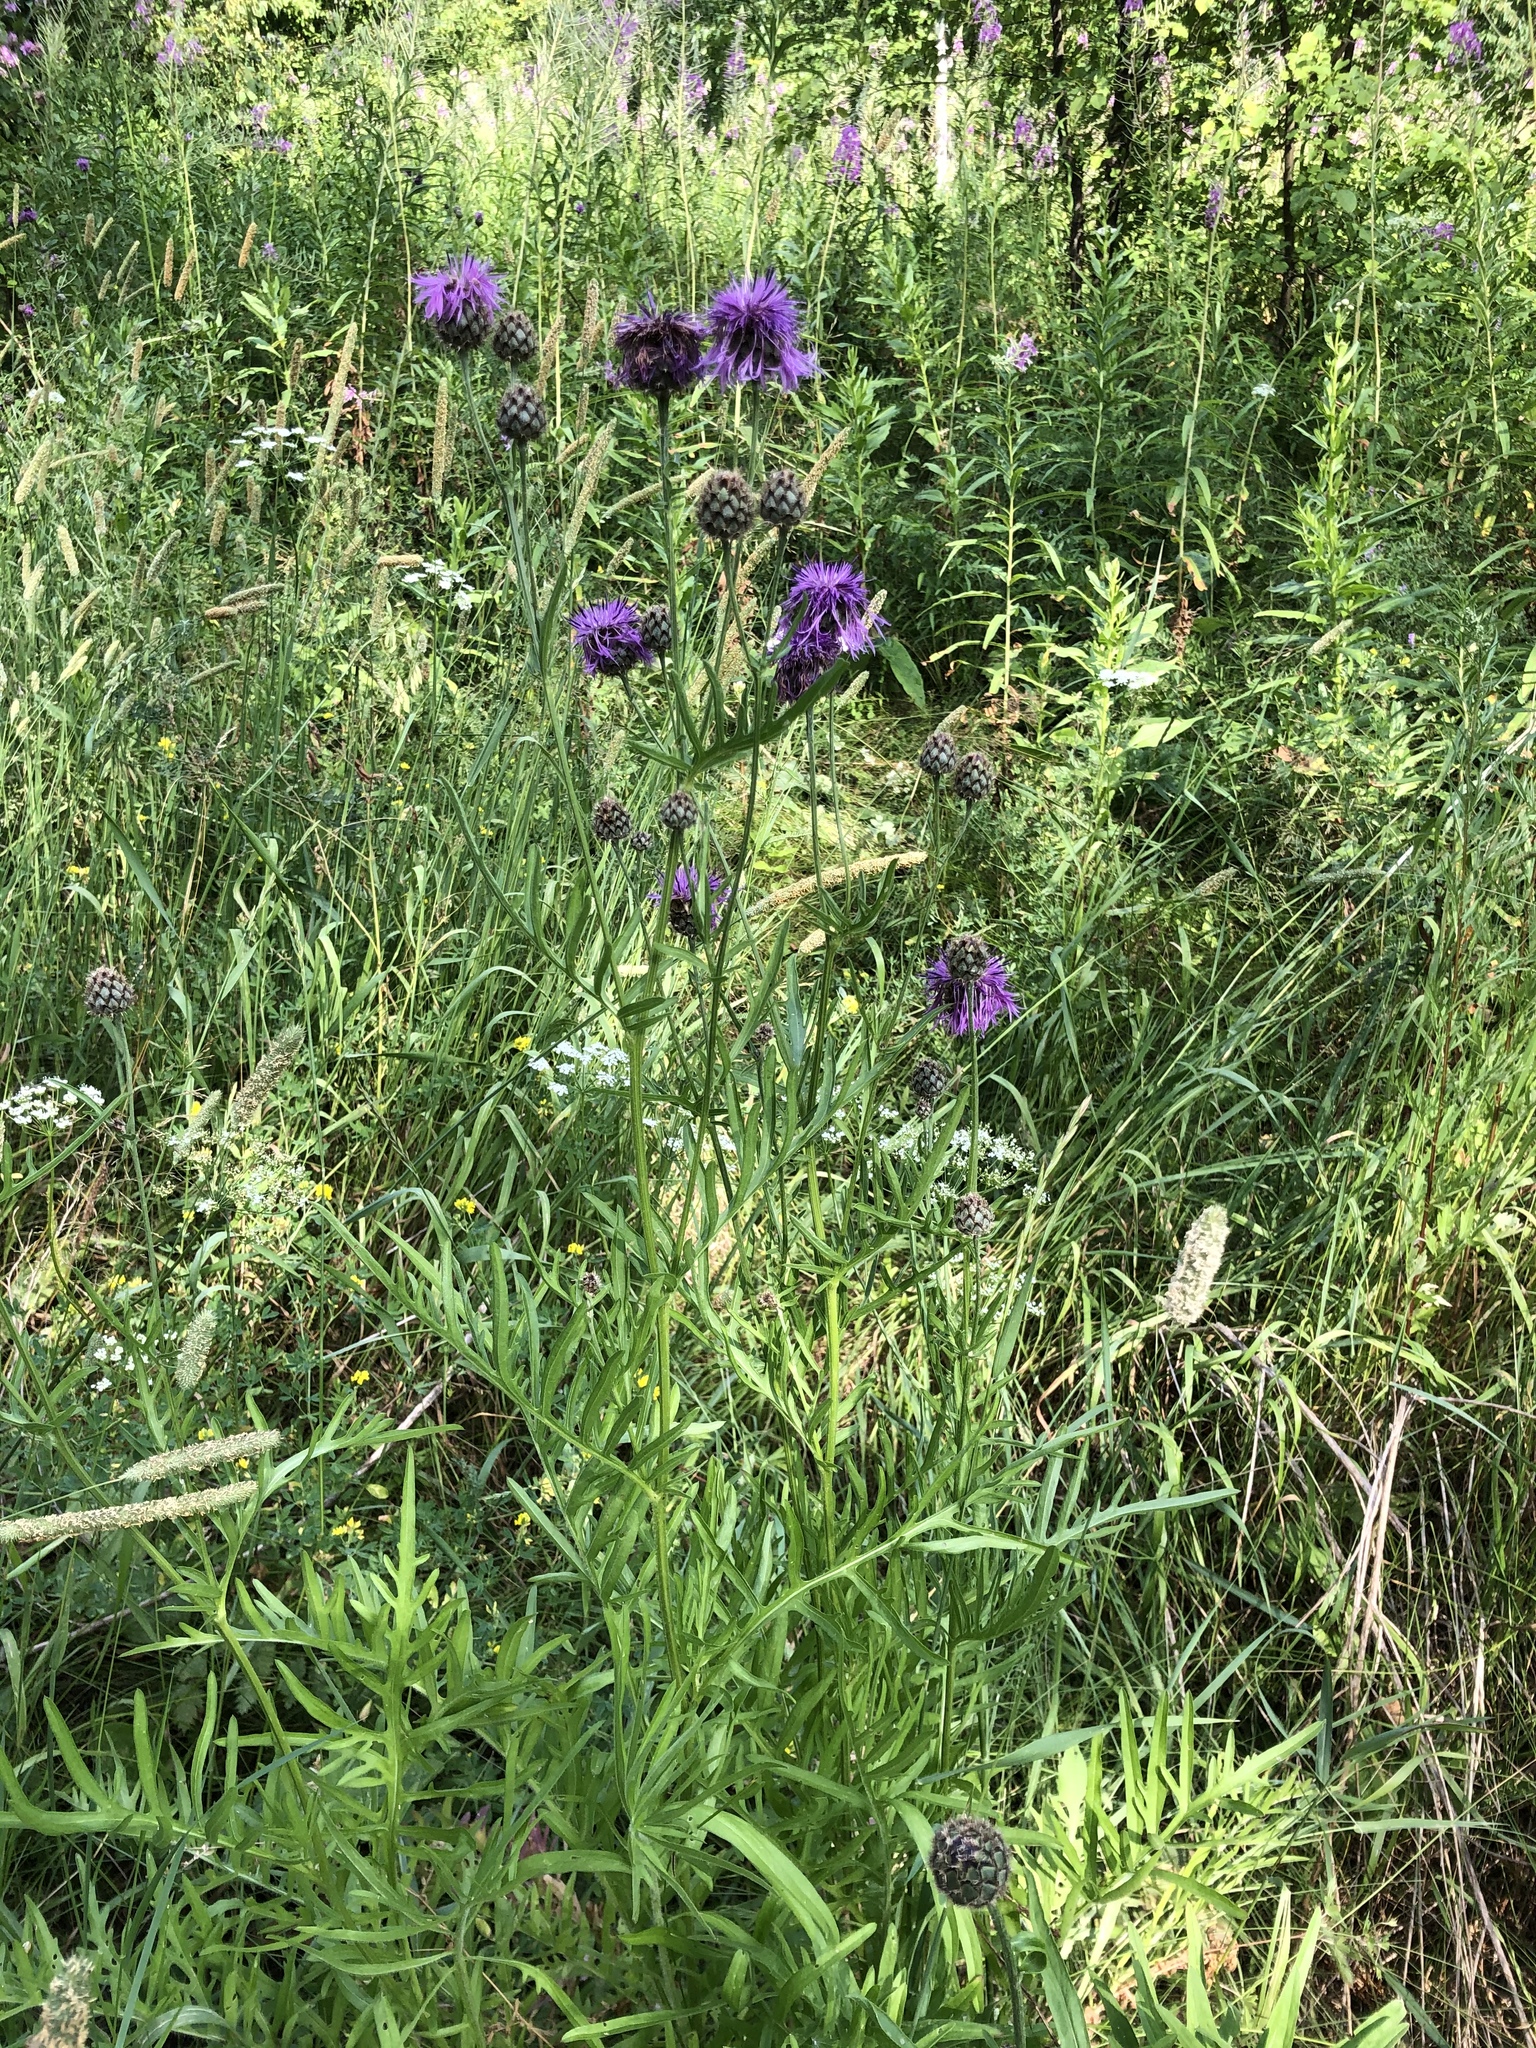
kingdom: Plantae
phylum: Tracheophyta
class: Magnoliopsida
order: Asterales
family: Asteraceae
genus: Centaurea
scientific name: Centaurea scabiosa
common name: Greater knapweed
